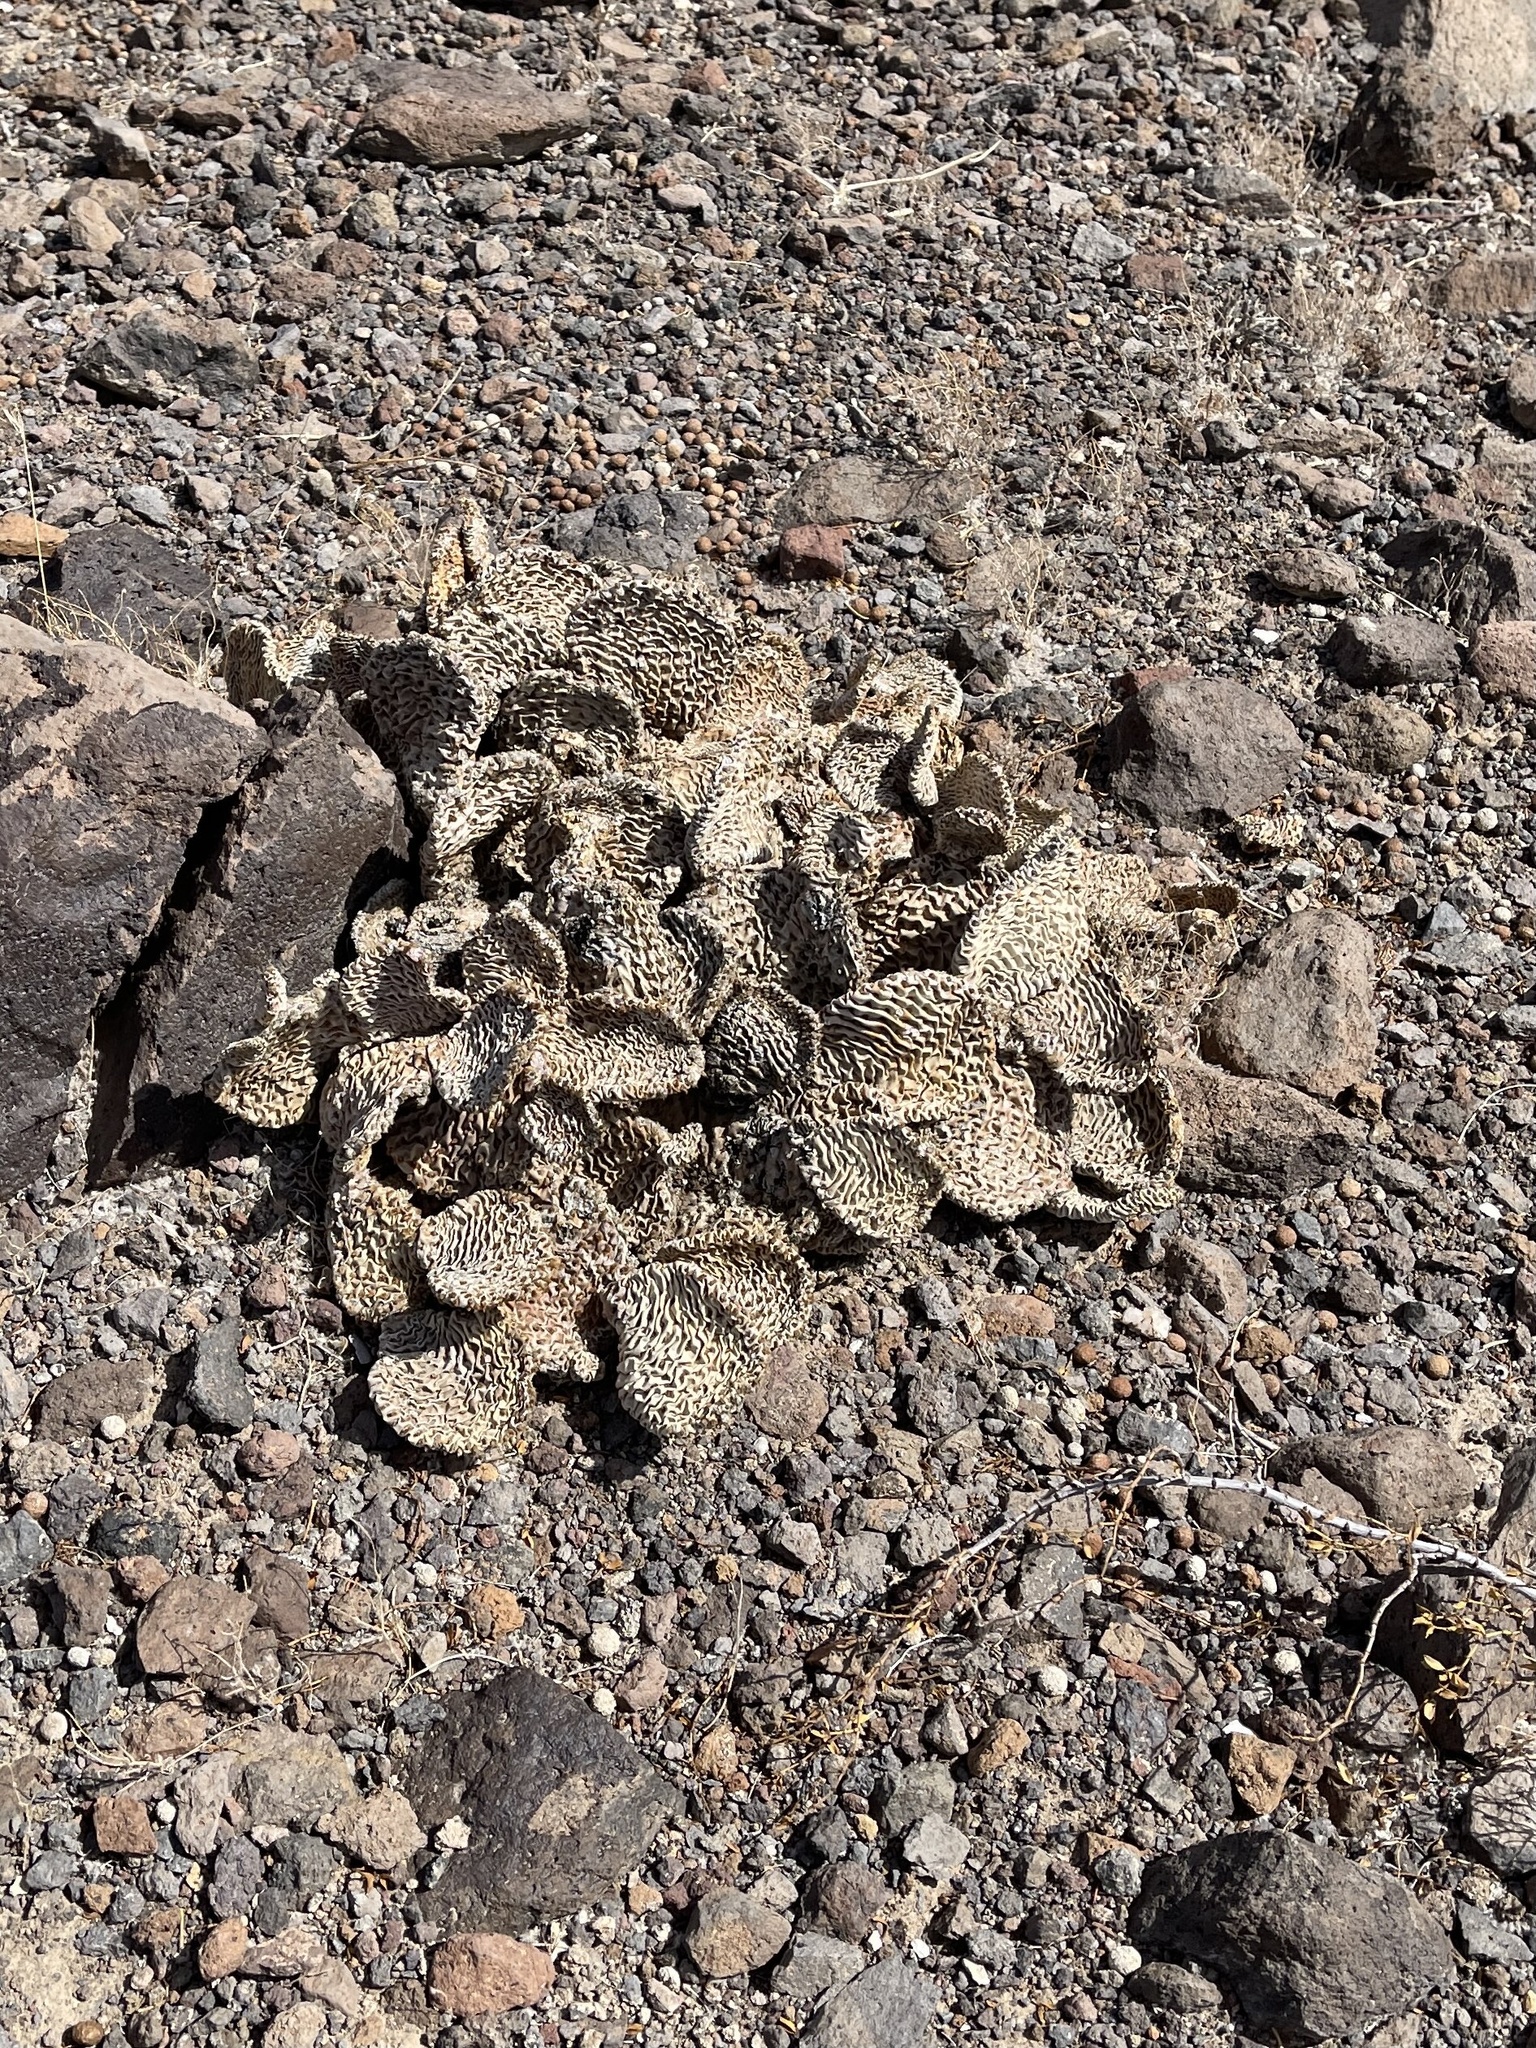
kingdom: Plantae
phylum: Tracheophyta
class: Magnoliopsida
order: Caryophyllales
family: Cactaceae
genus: Opuntia
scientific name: Opuntia basilaris
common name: Beavertail prickly-pear
